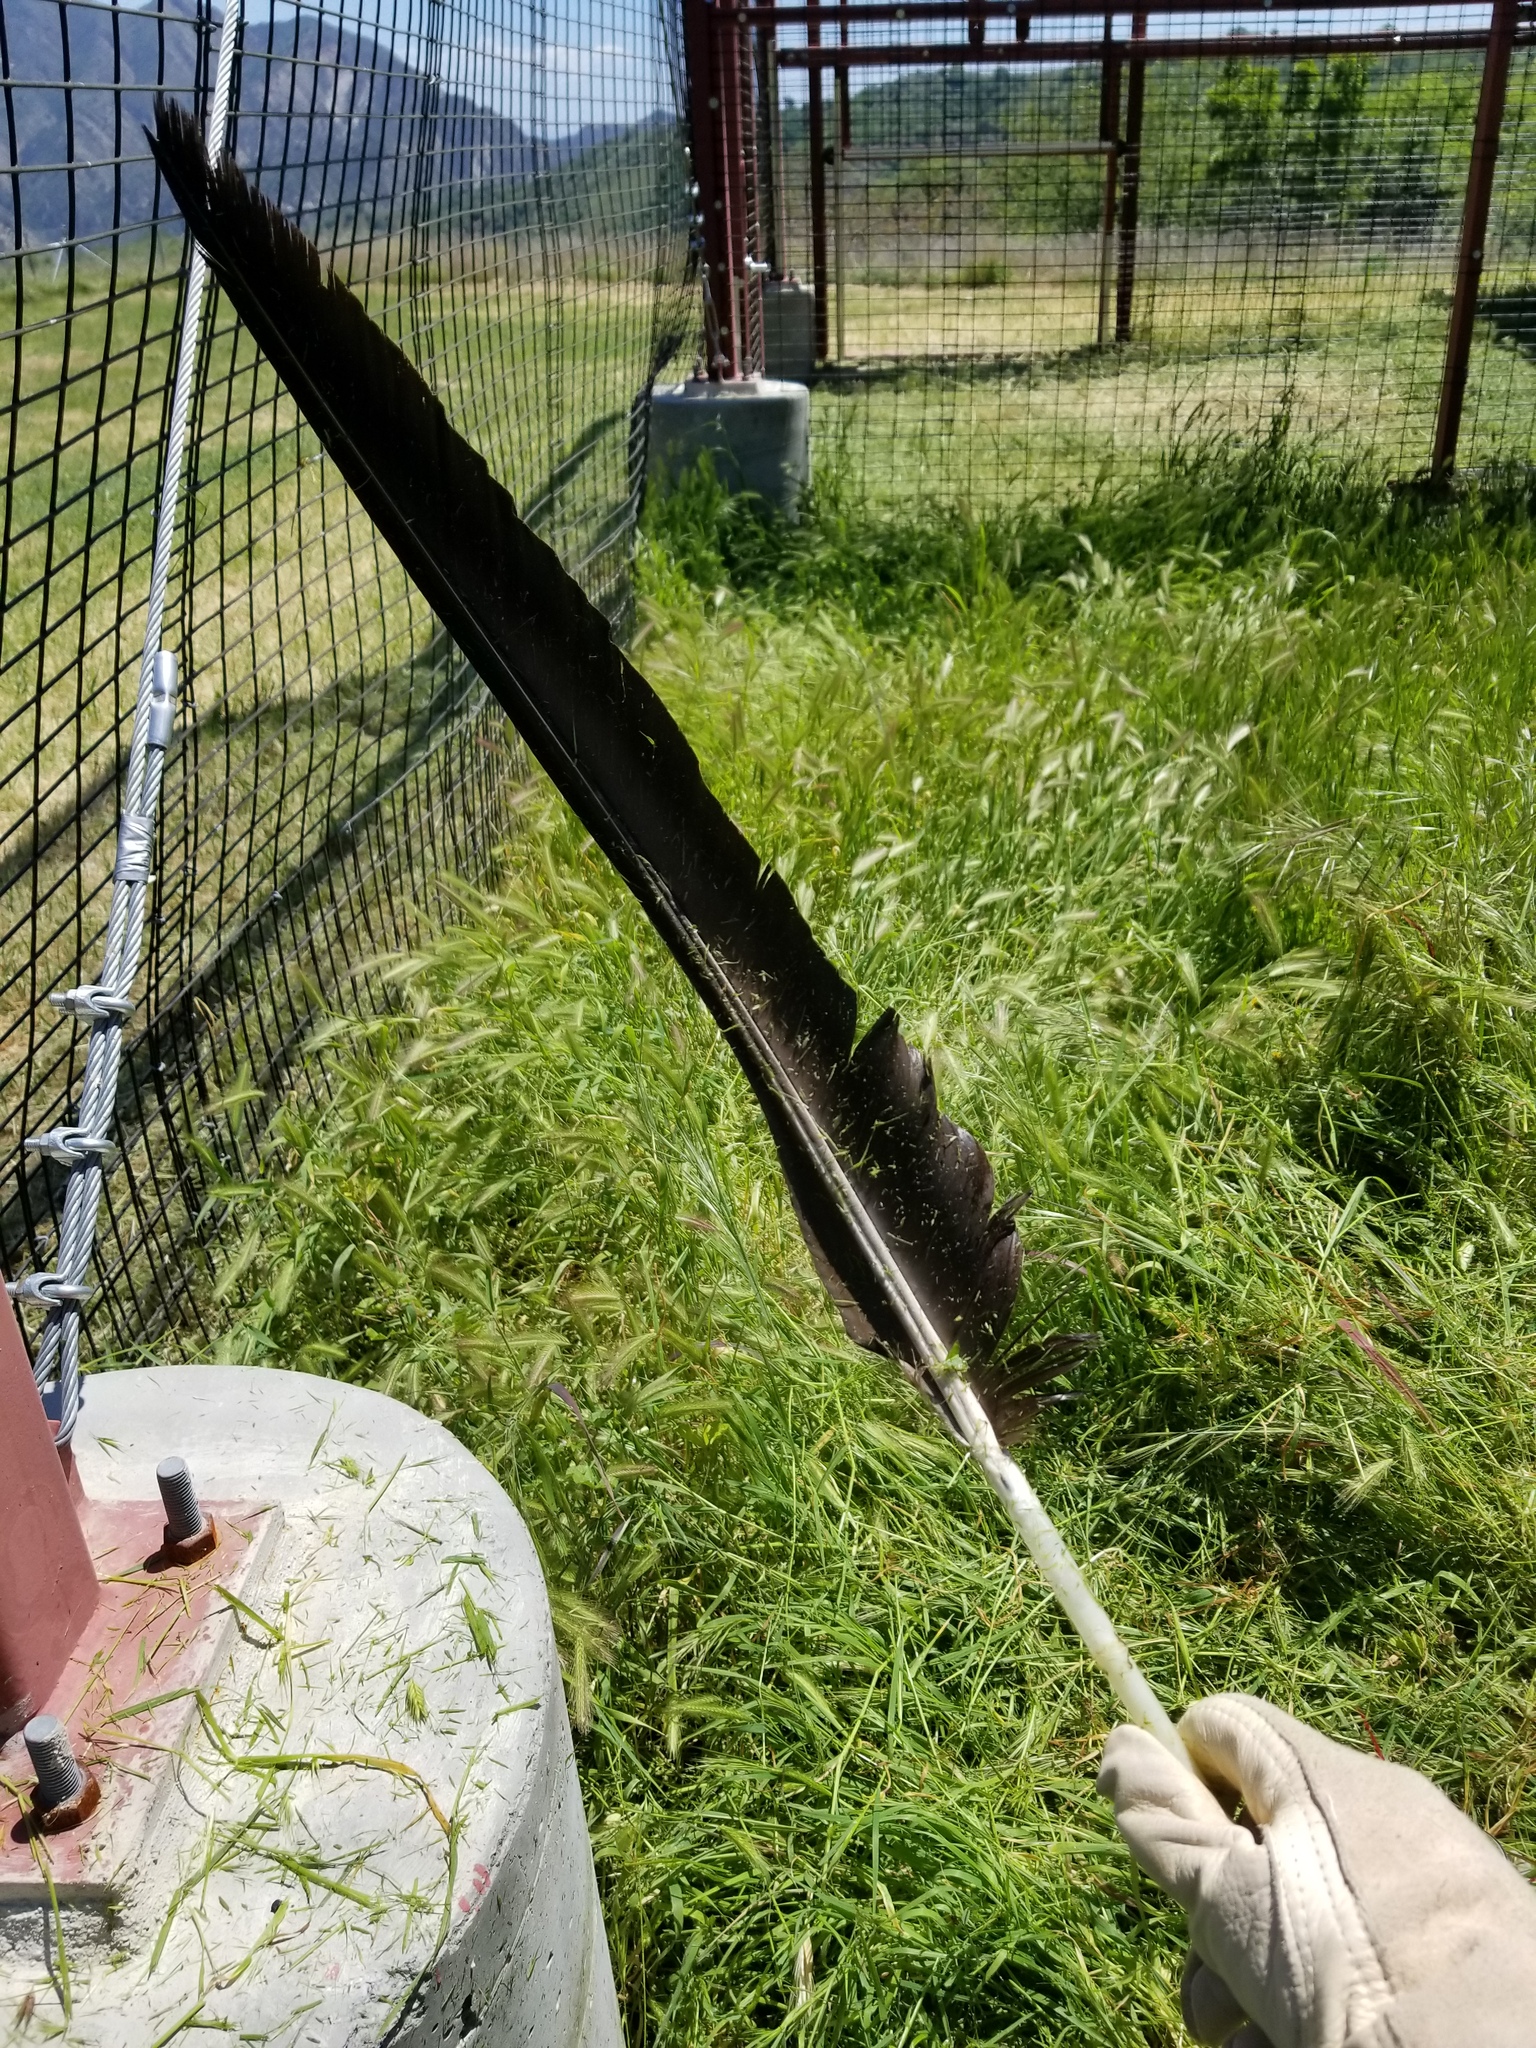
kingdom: Animalia
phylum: Chordata
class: Aves
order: Accipitriformes
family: Cathartidae
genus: Gymnogyps
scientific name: Gymnogyps californianus
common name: California condor
